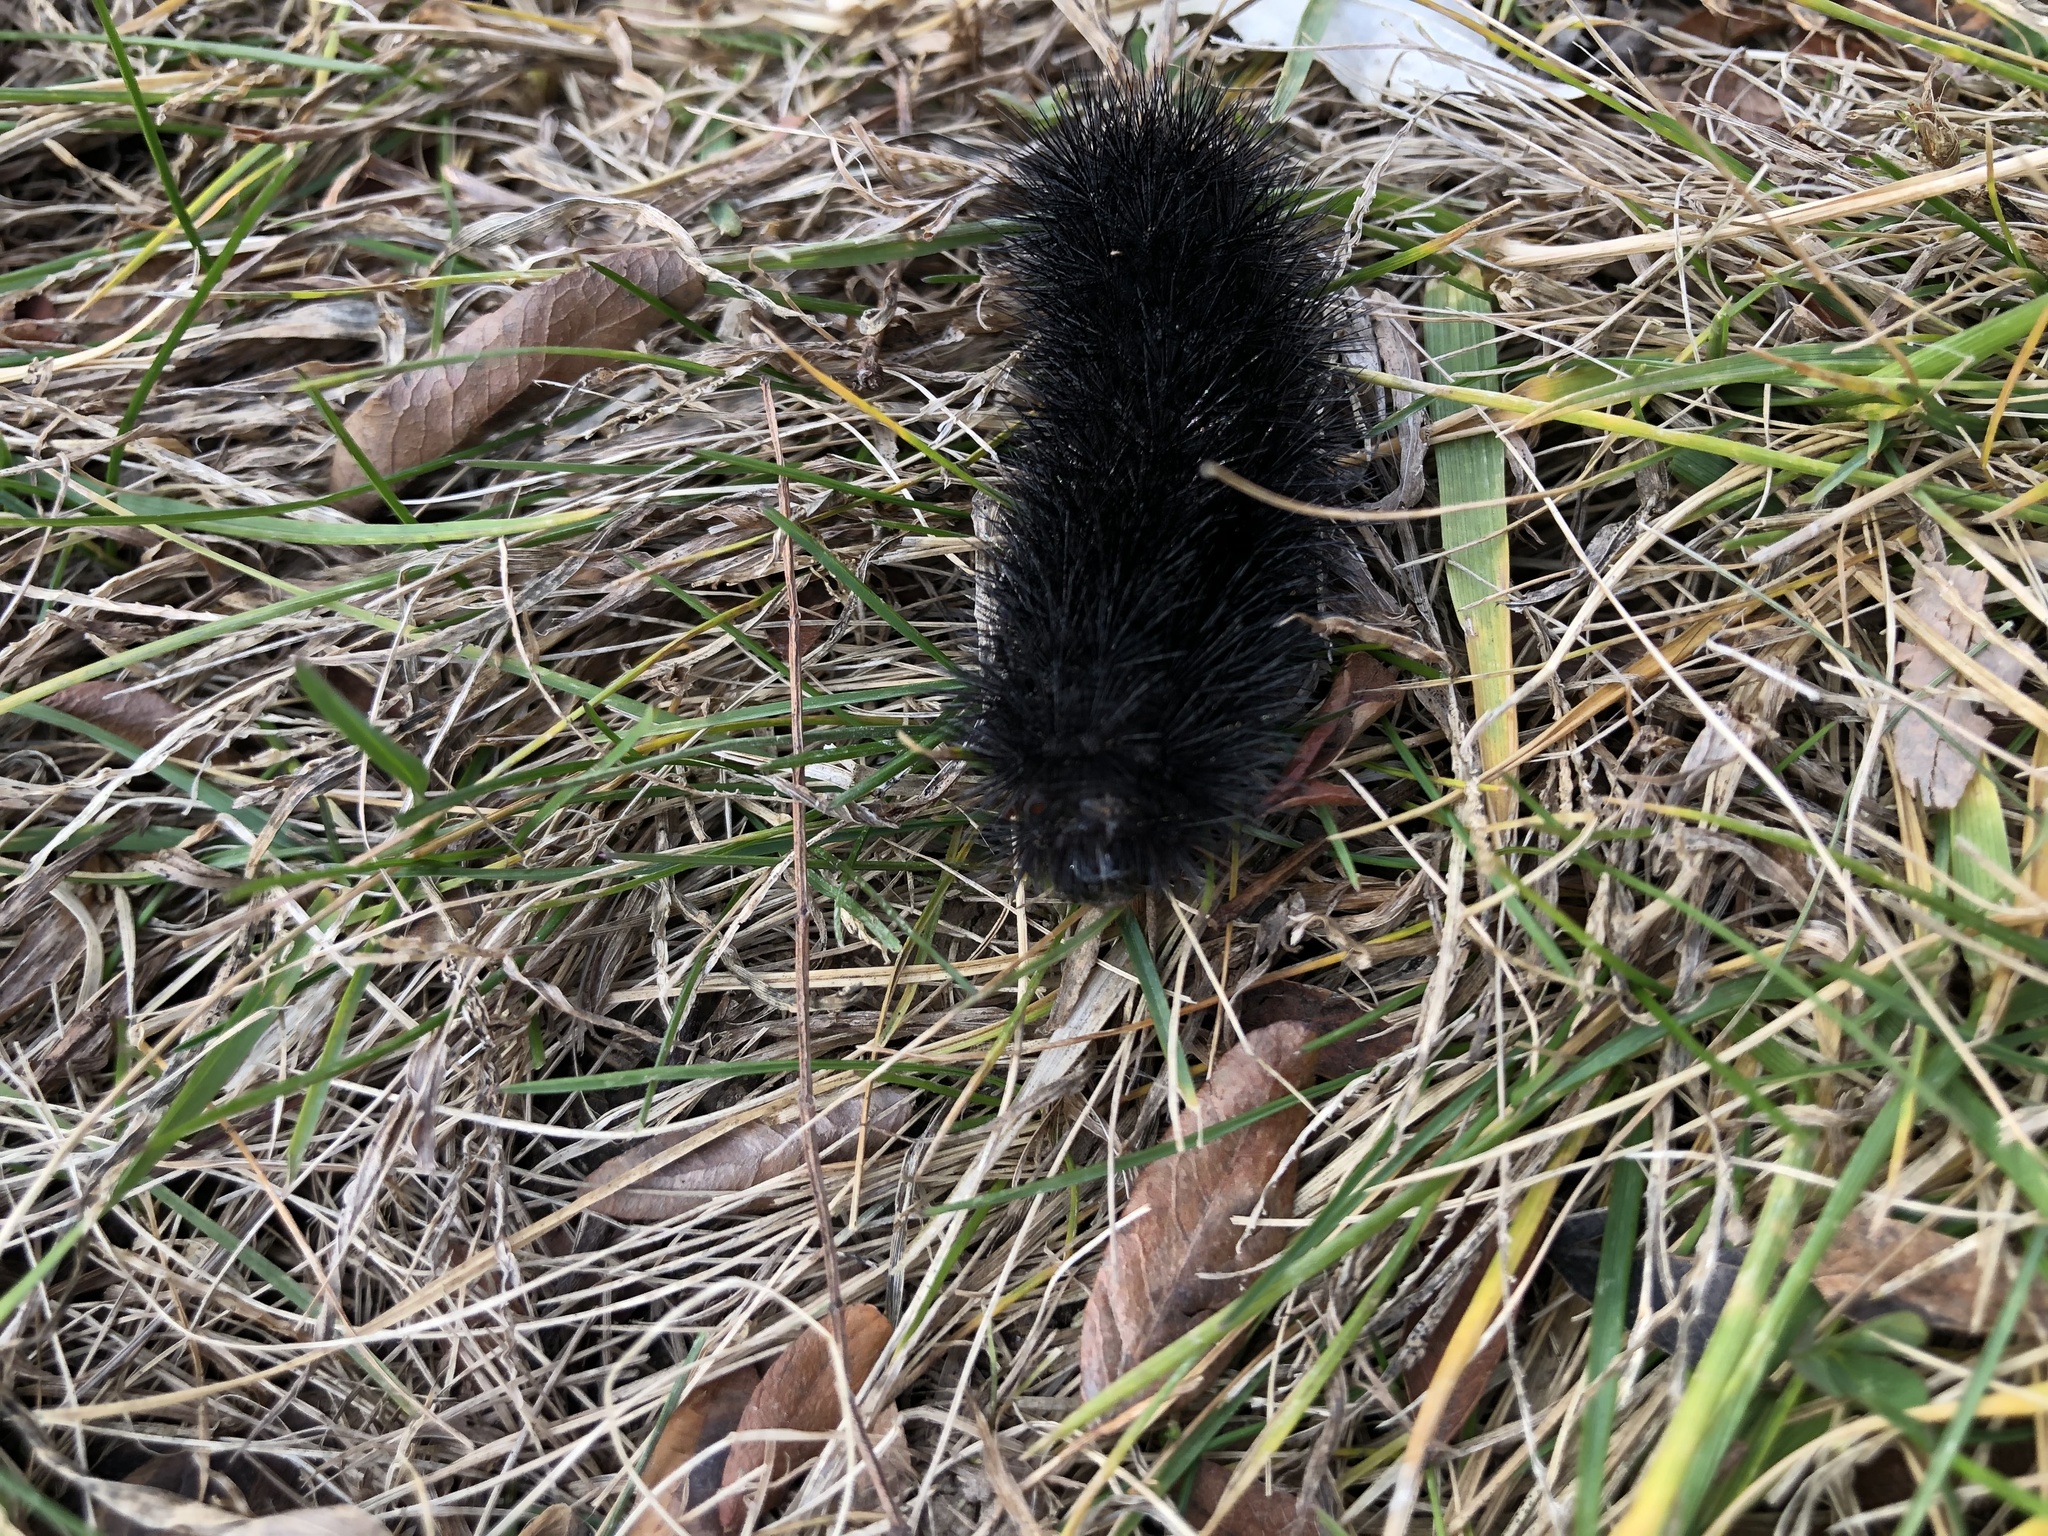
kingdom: Animalia
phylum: Arthropoda
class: Insecta
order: Lepidoptera
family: Erebidae
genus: Hypercompe
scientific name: Hypercompe scribonia
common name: Giant leopard moth
